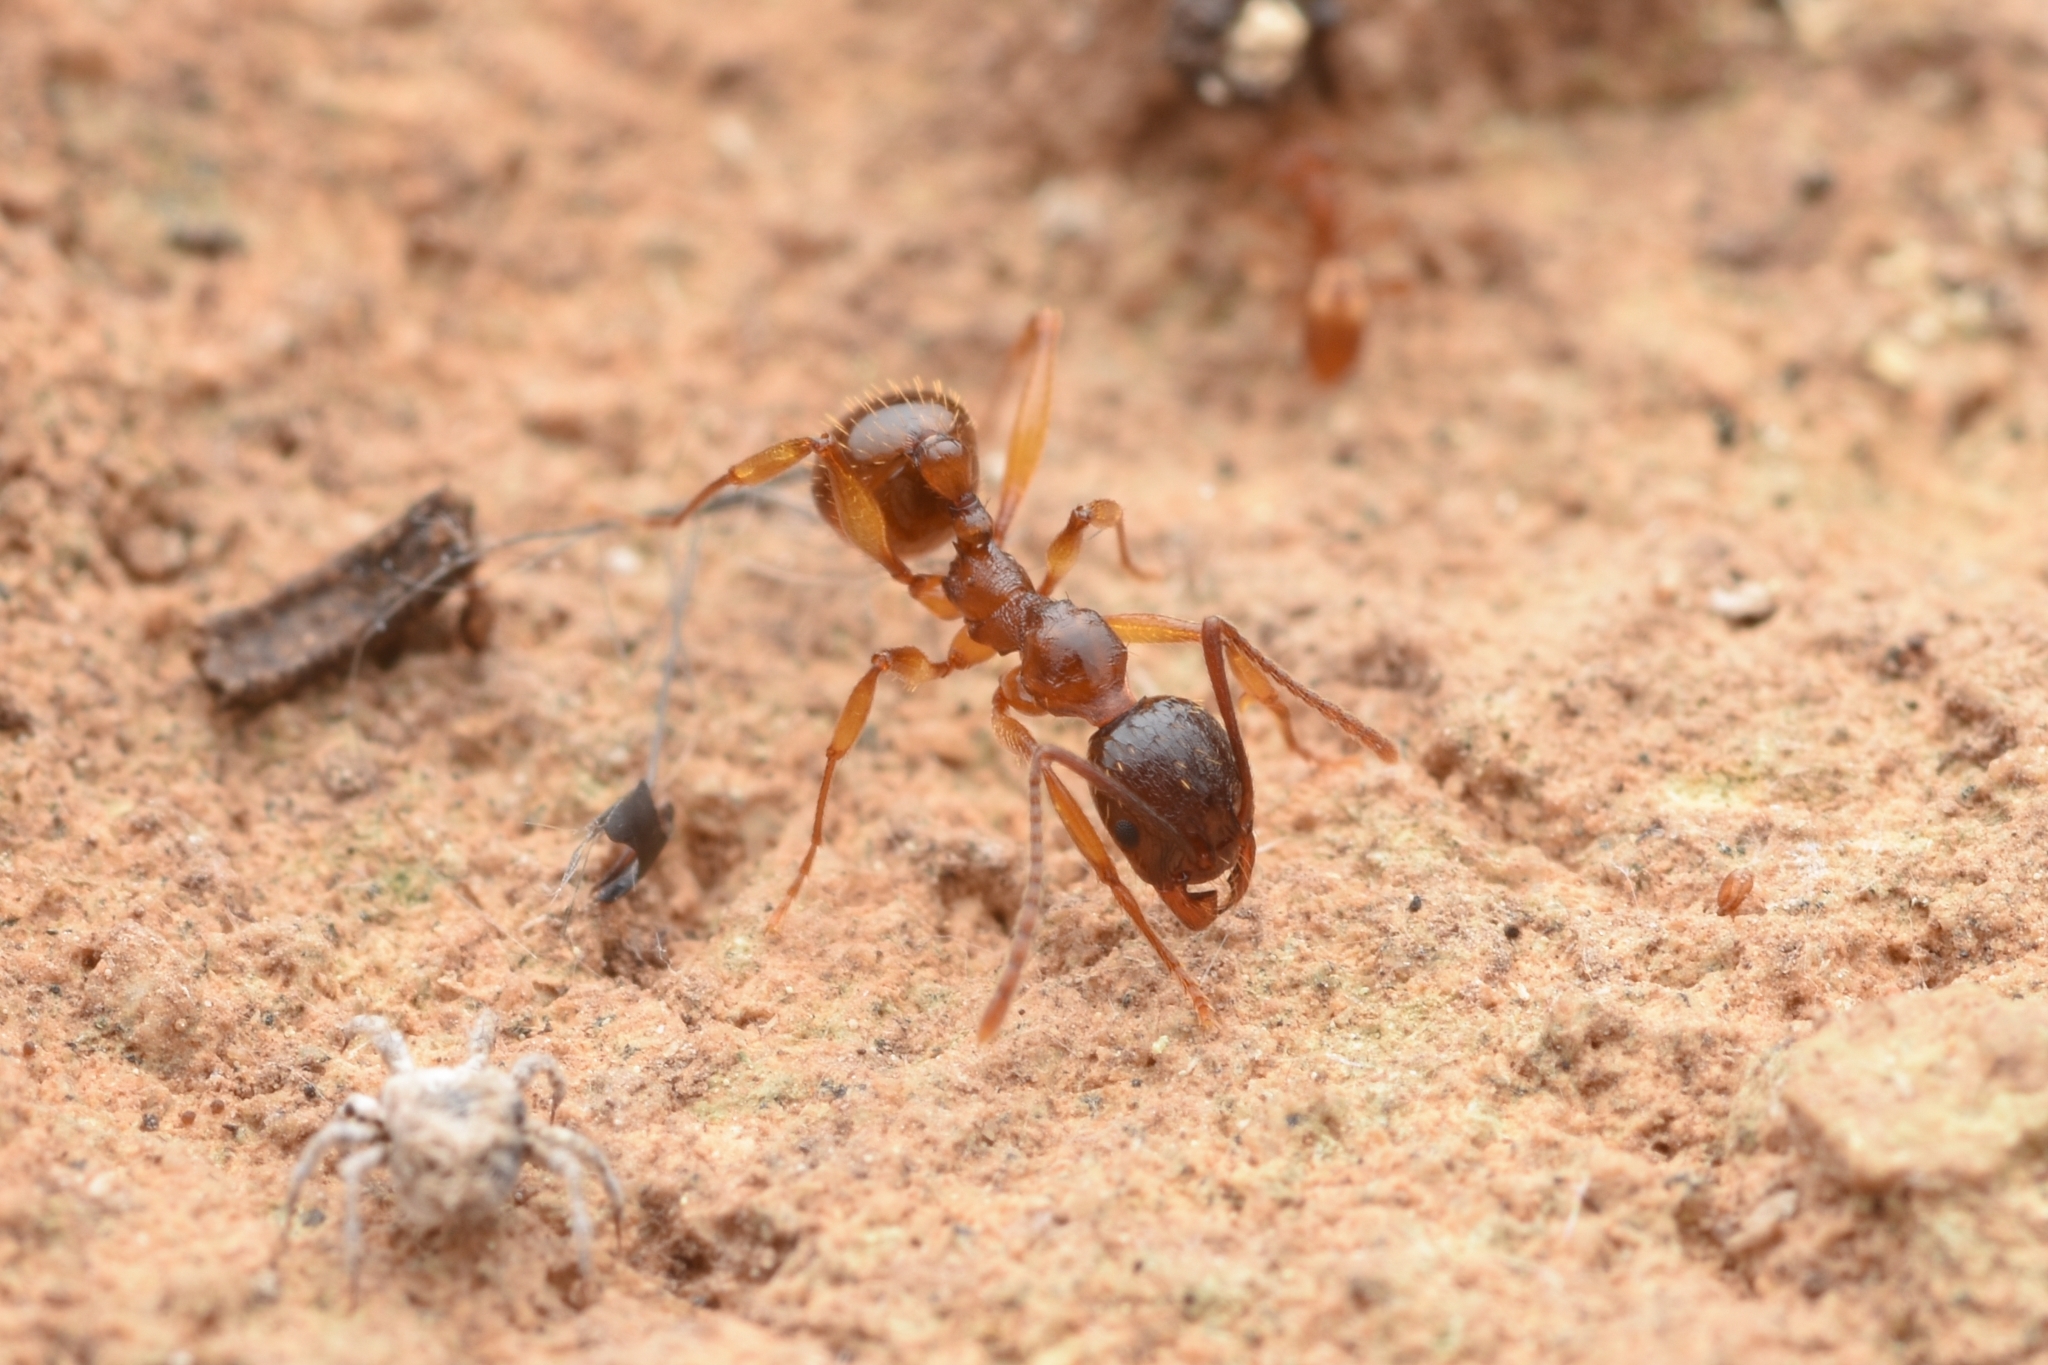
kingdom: Animalia
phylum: Arthropoda
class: Insecta
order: Hymenoptera
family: Formicidae
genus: Aphaenogaster
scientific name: Aphaenogaster japonica
